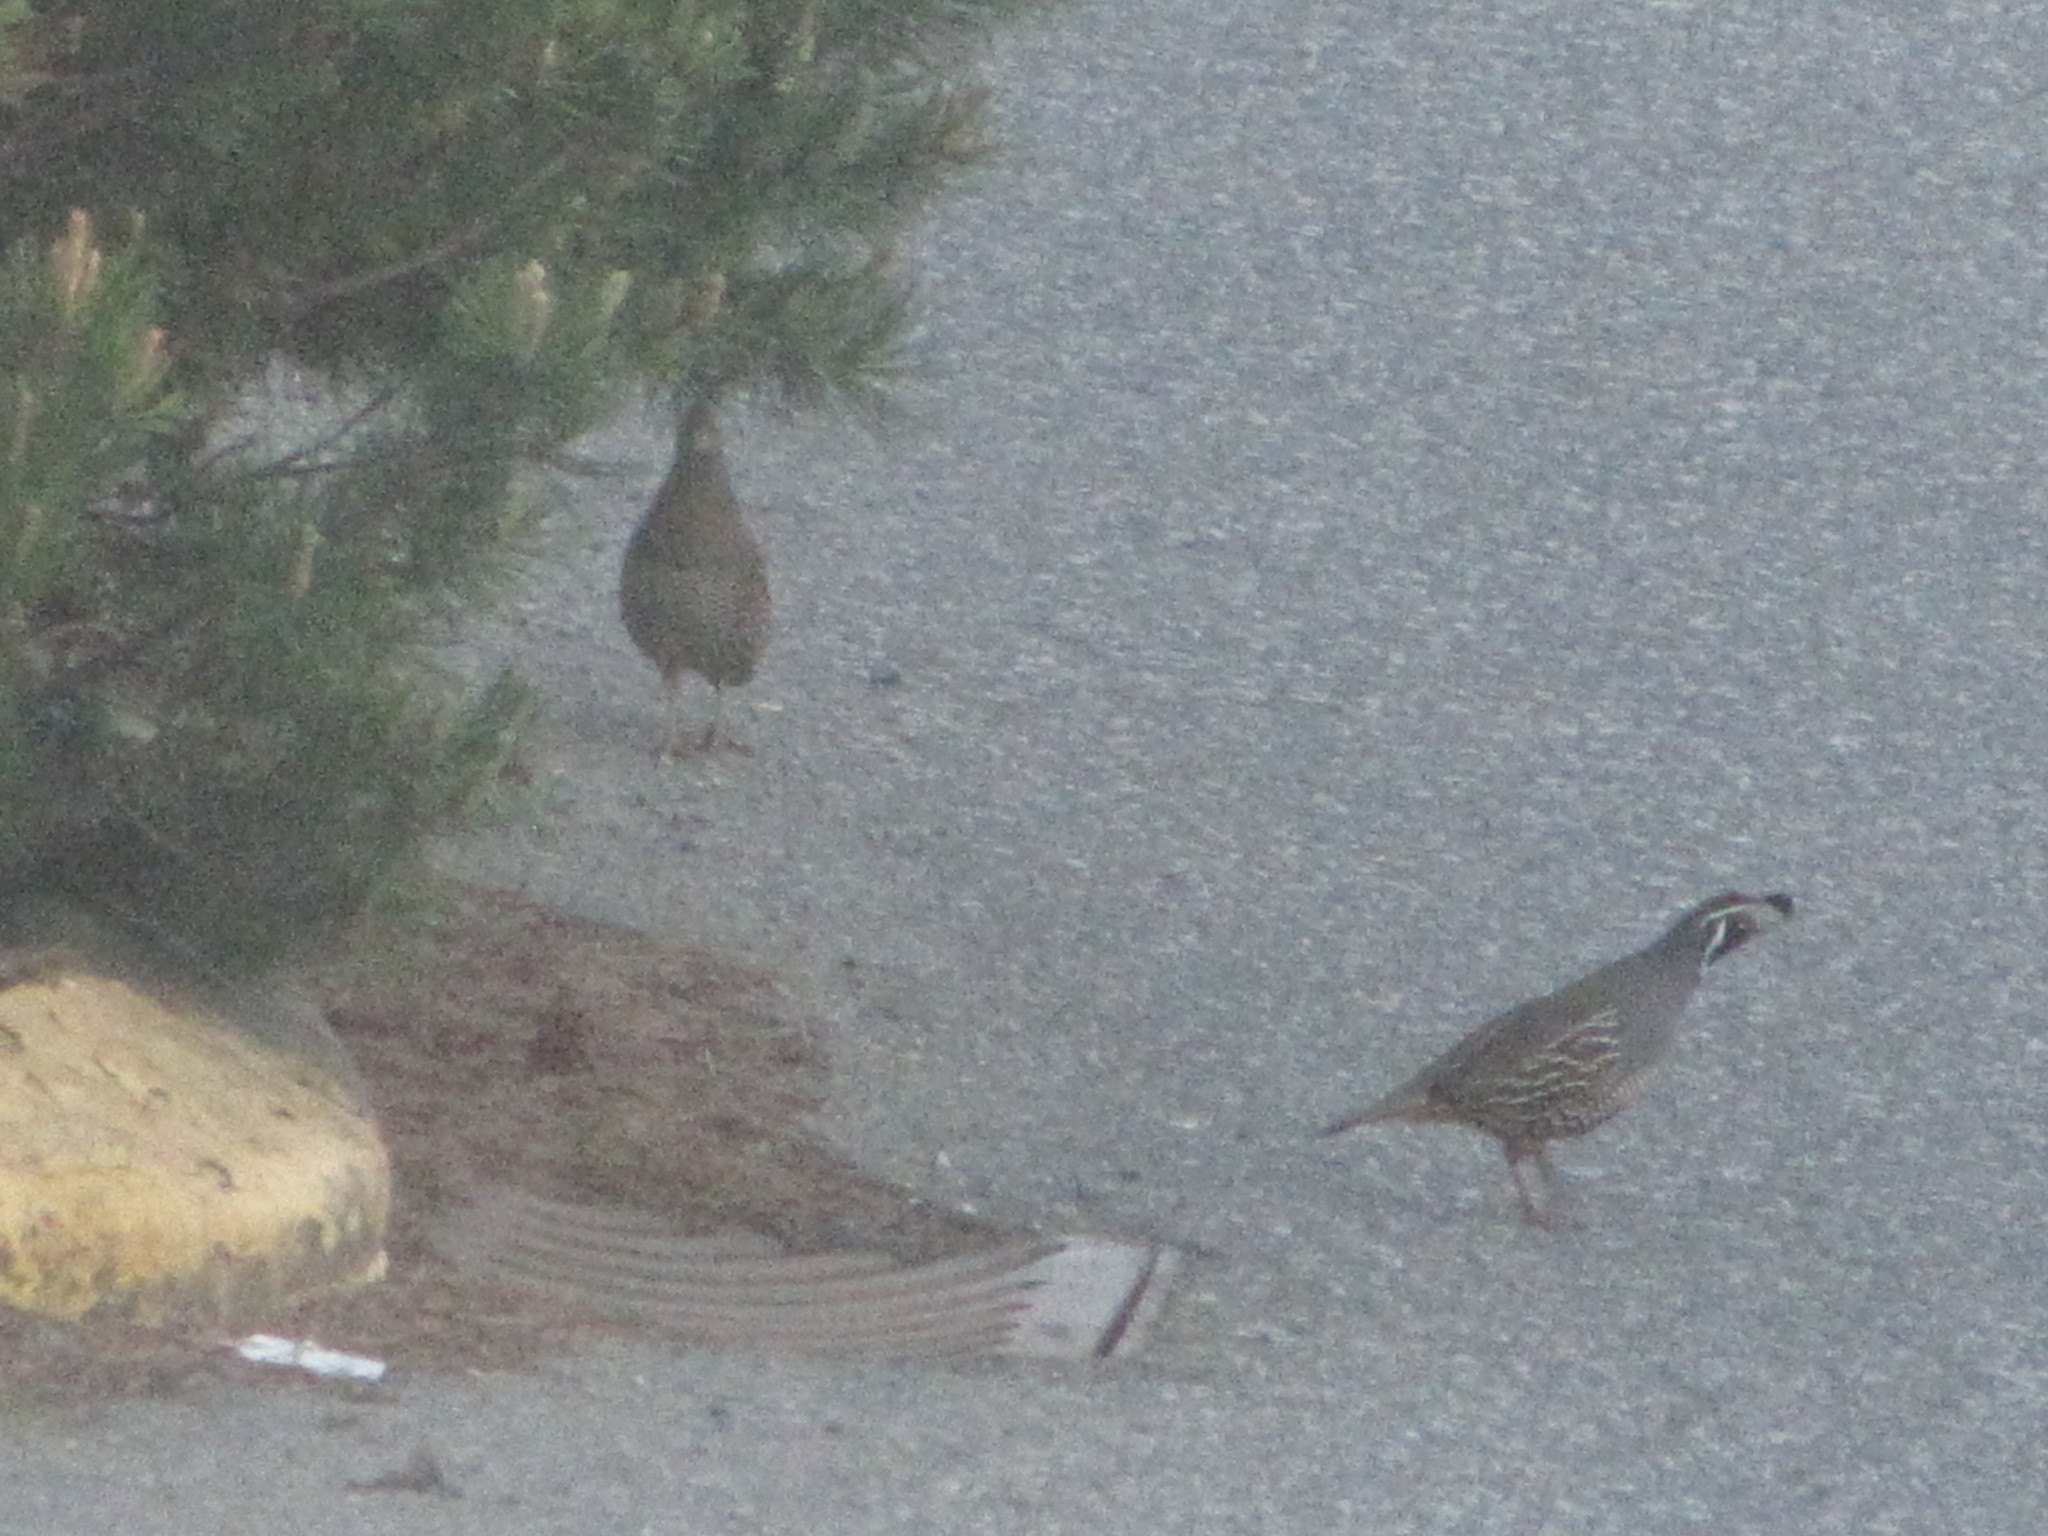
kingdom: Animalia
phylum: Chordata
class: Aves
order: Galliformes
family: Odontophoridae
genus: Callipepla
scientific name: Callipepla californica
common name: California quail
